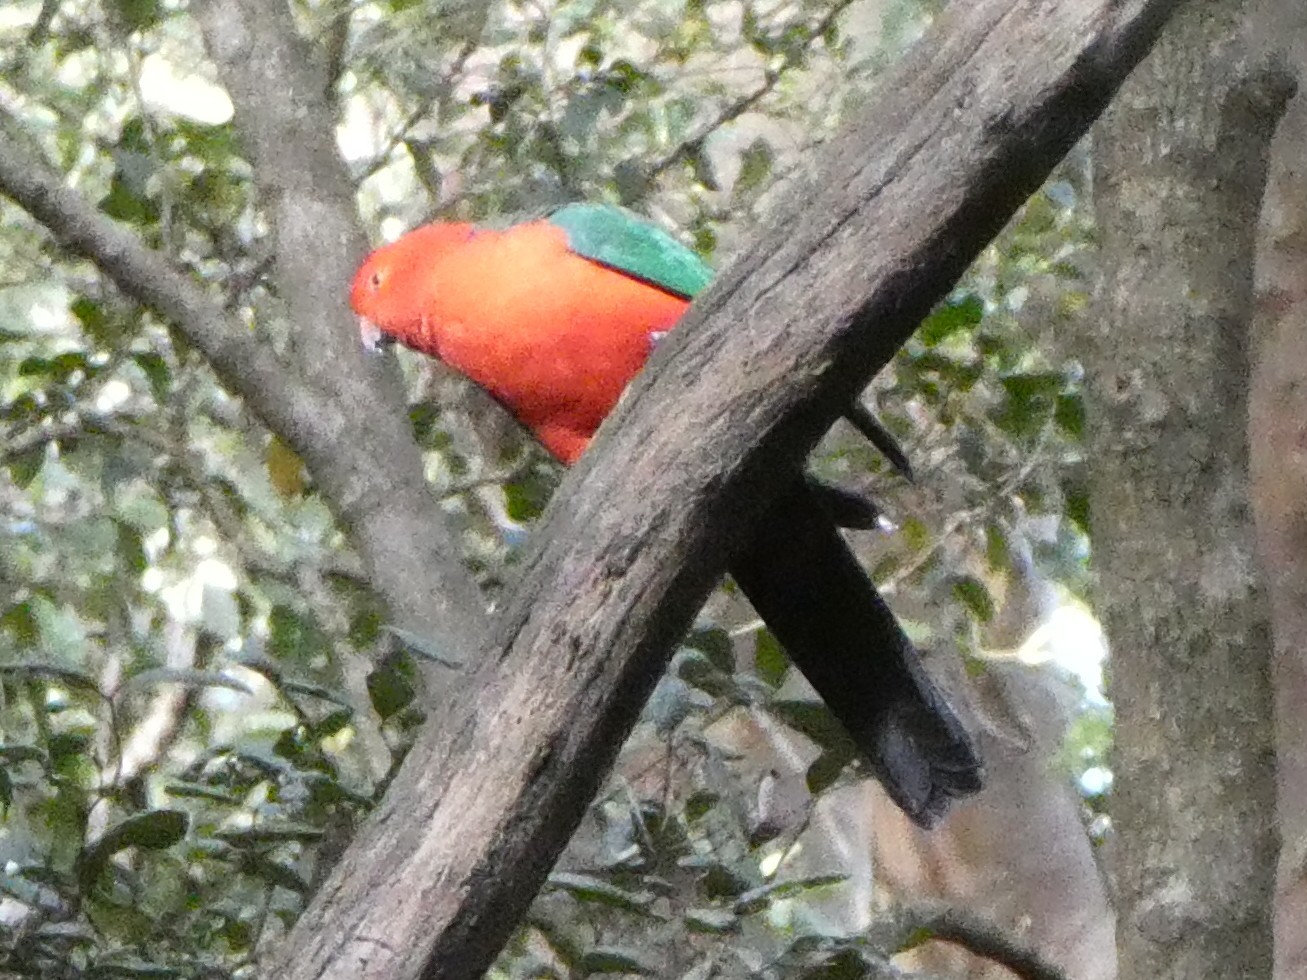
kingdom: Animalia
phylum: Chordata
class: Aves
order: Psittaciformes
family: Psittacidae
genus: Alisterus
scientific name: Alisterus scapularis
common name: Australian king parrot
